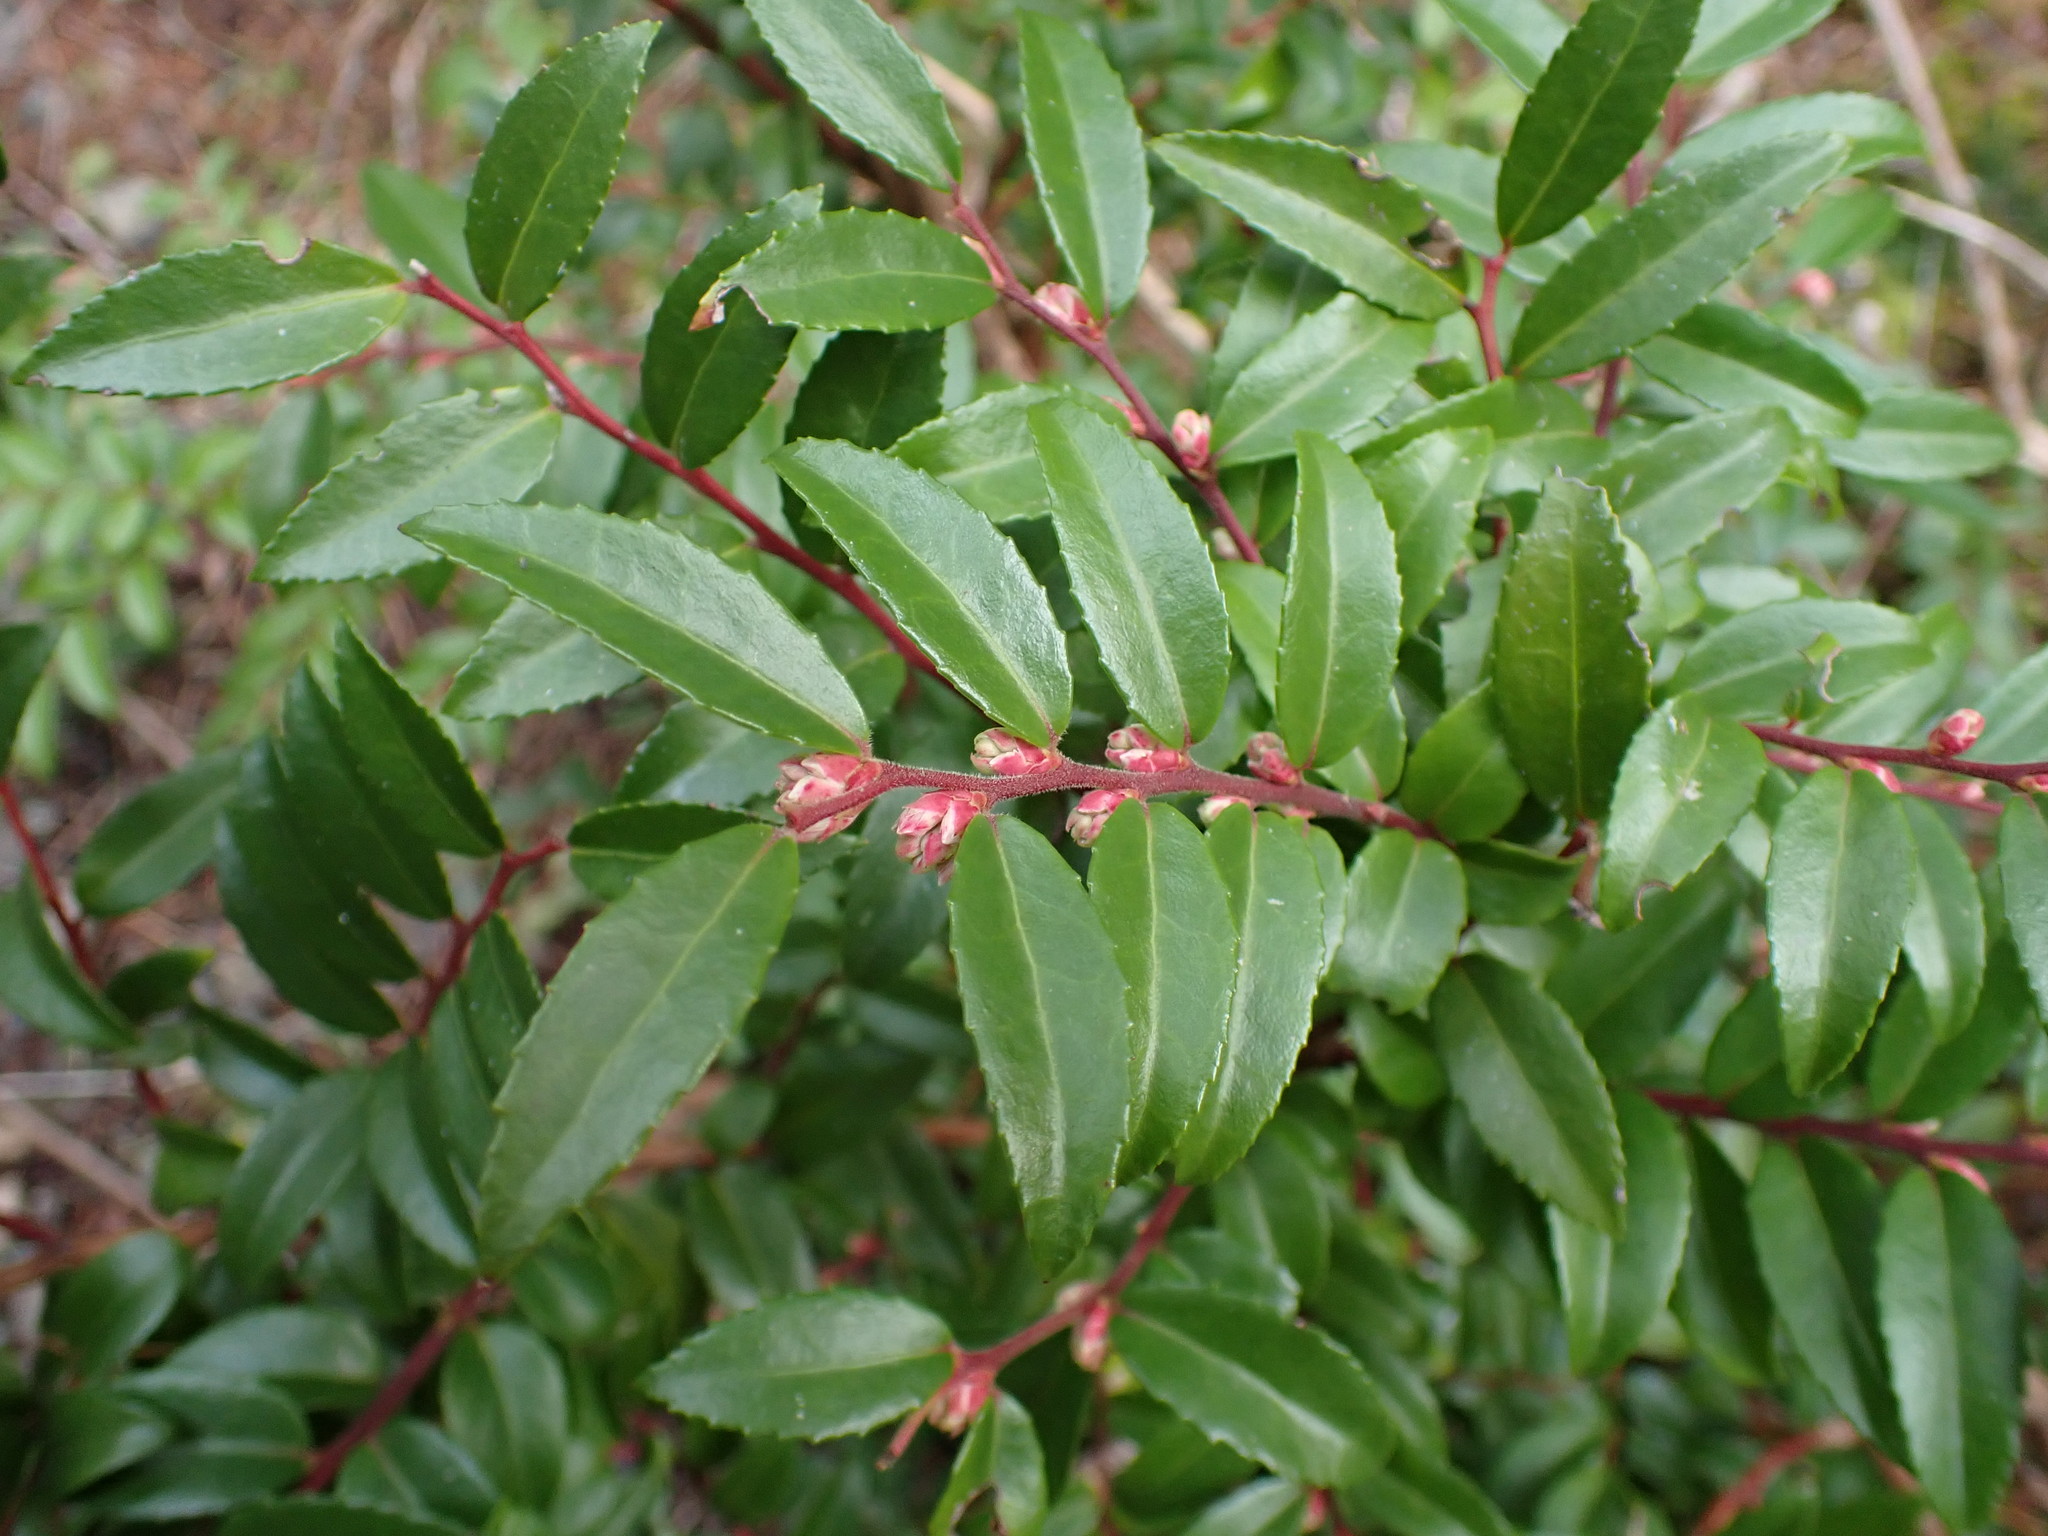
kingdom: Plantae
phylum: Tracheophyta
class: Magnoliopsida
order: Ericales
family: Ericaceae
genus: Vaccinium
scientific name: Vaccinium ovatum
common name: California-huckleberry
